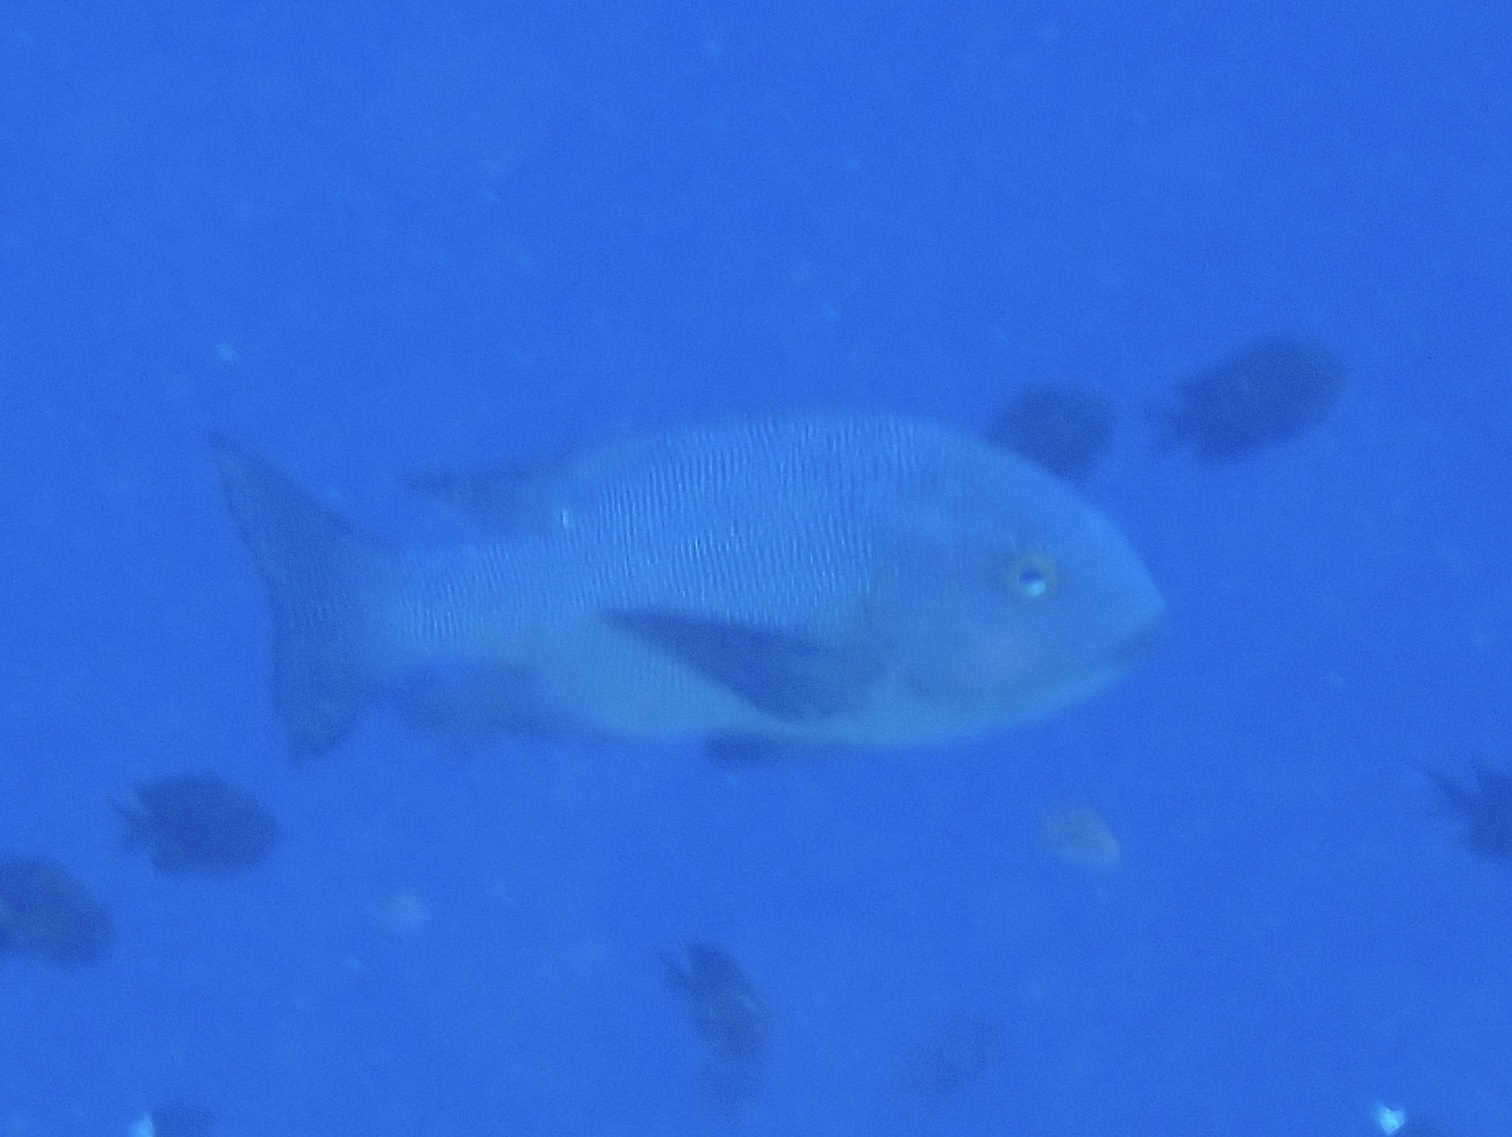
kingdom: Animalia
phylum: Chordata
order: Perciformes
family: Lutjanidae
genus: Macolor
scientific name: Macolor macularis
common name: Midnight snapper
